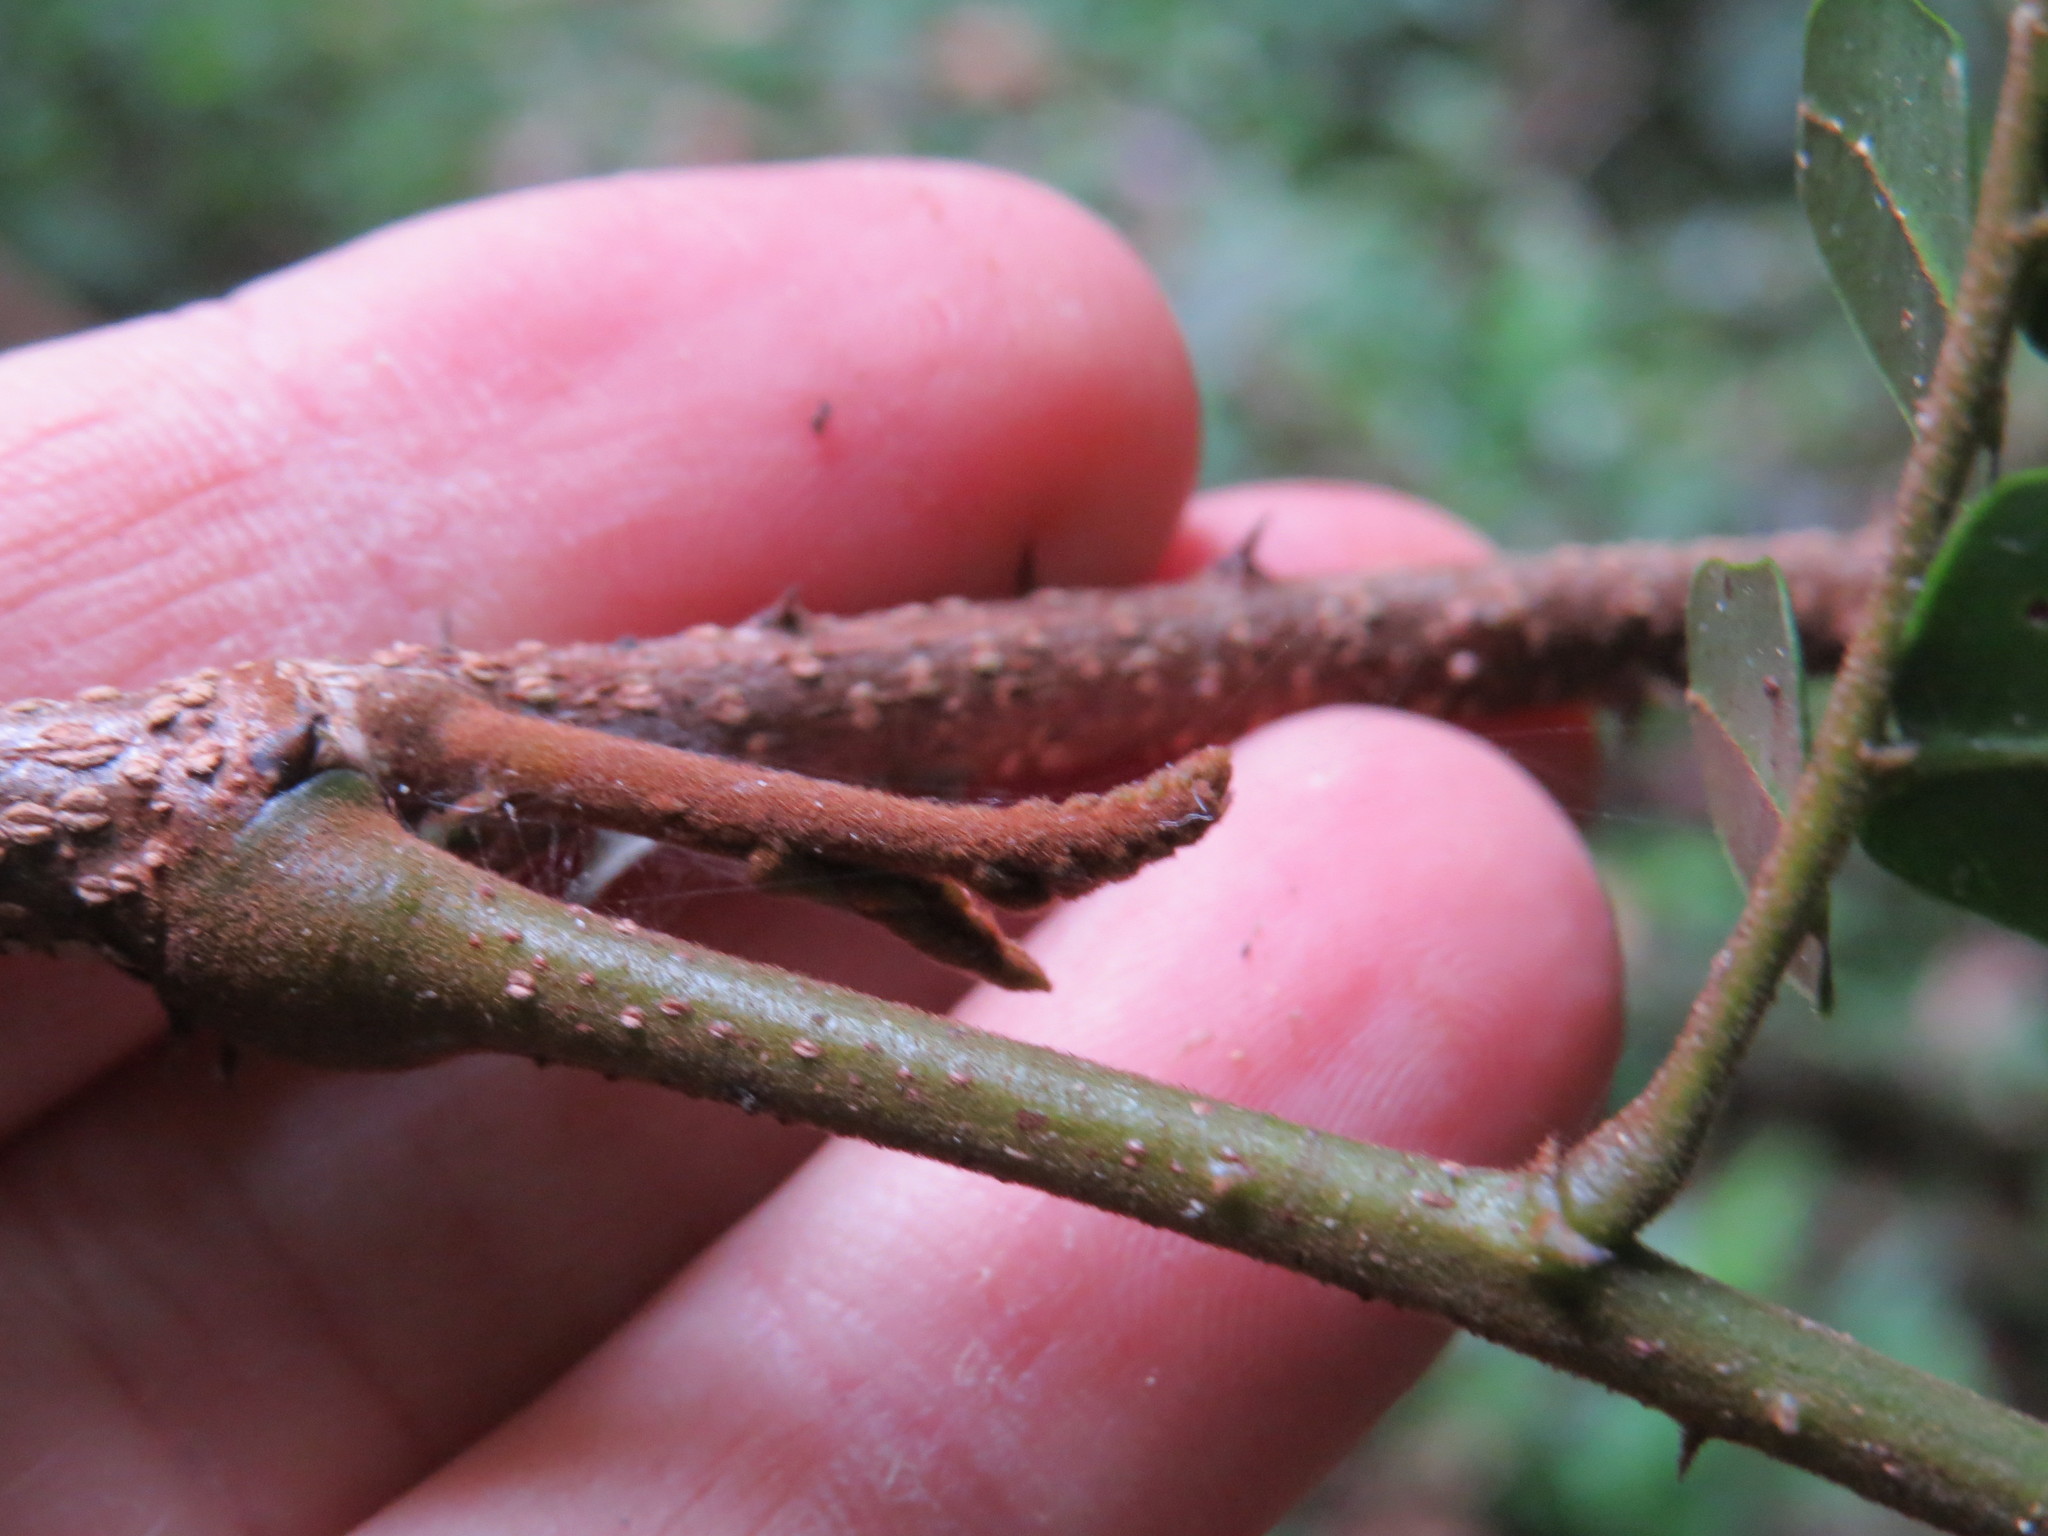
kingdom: Plantae
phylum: Tracheophyta
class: Magnoliopsida
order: Fabales
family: Fabaceae
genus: Paubrasilia
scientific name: Paubrasilia echinata
